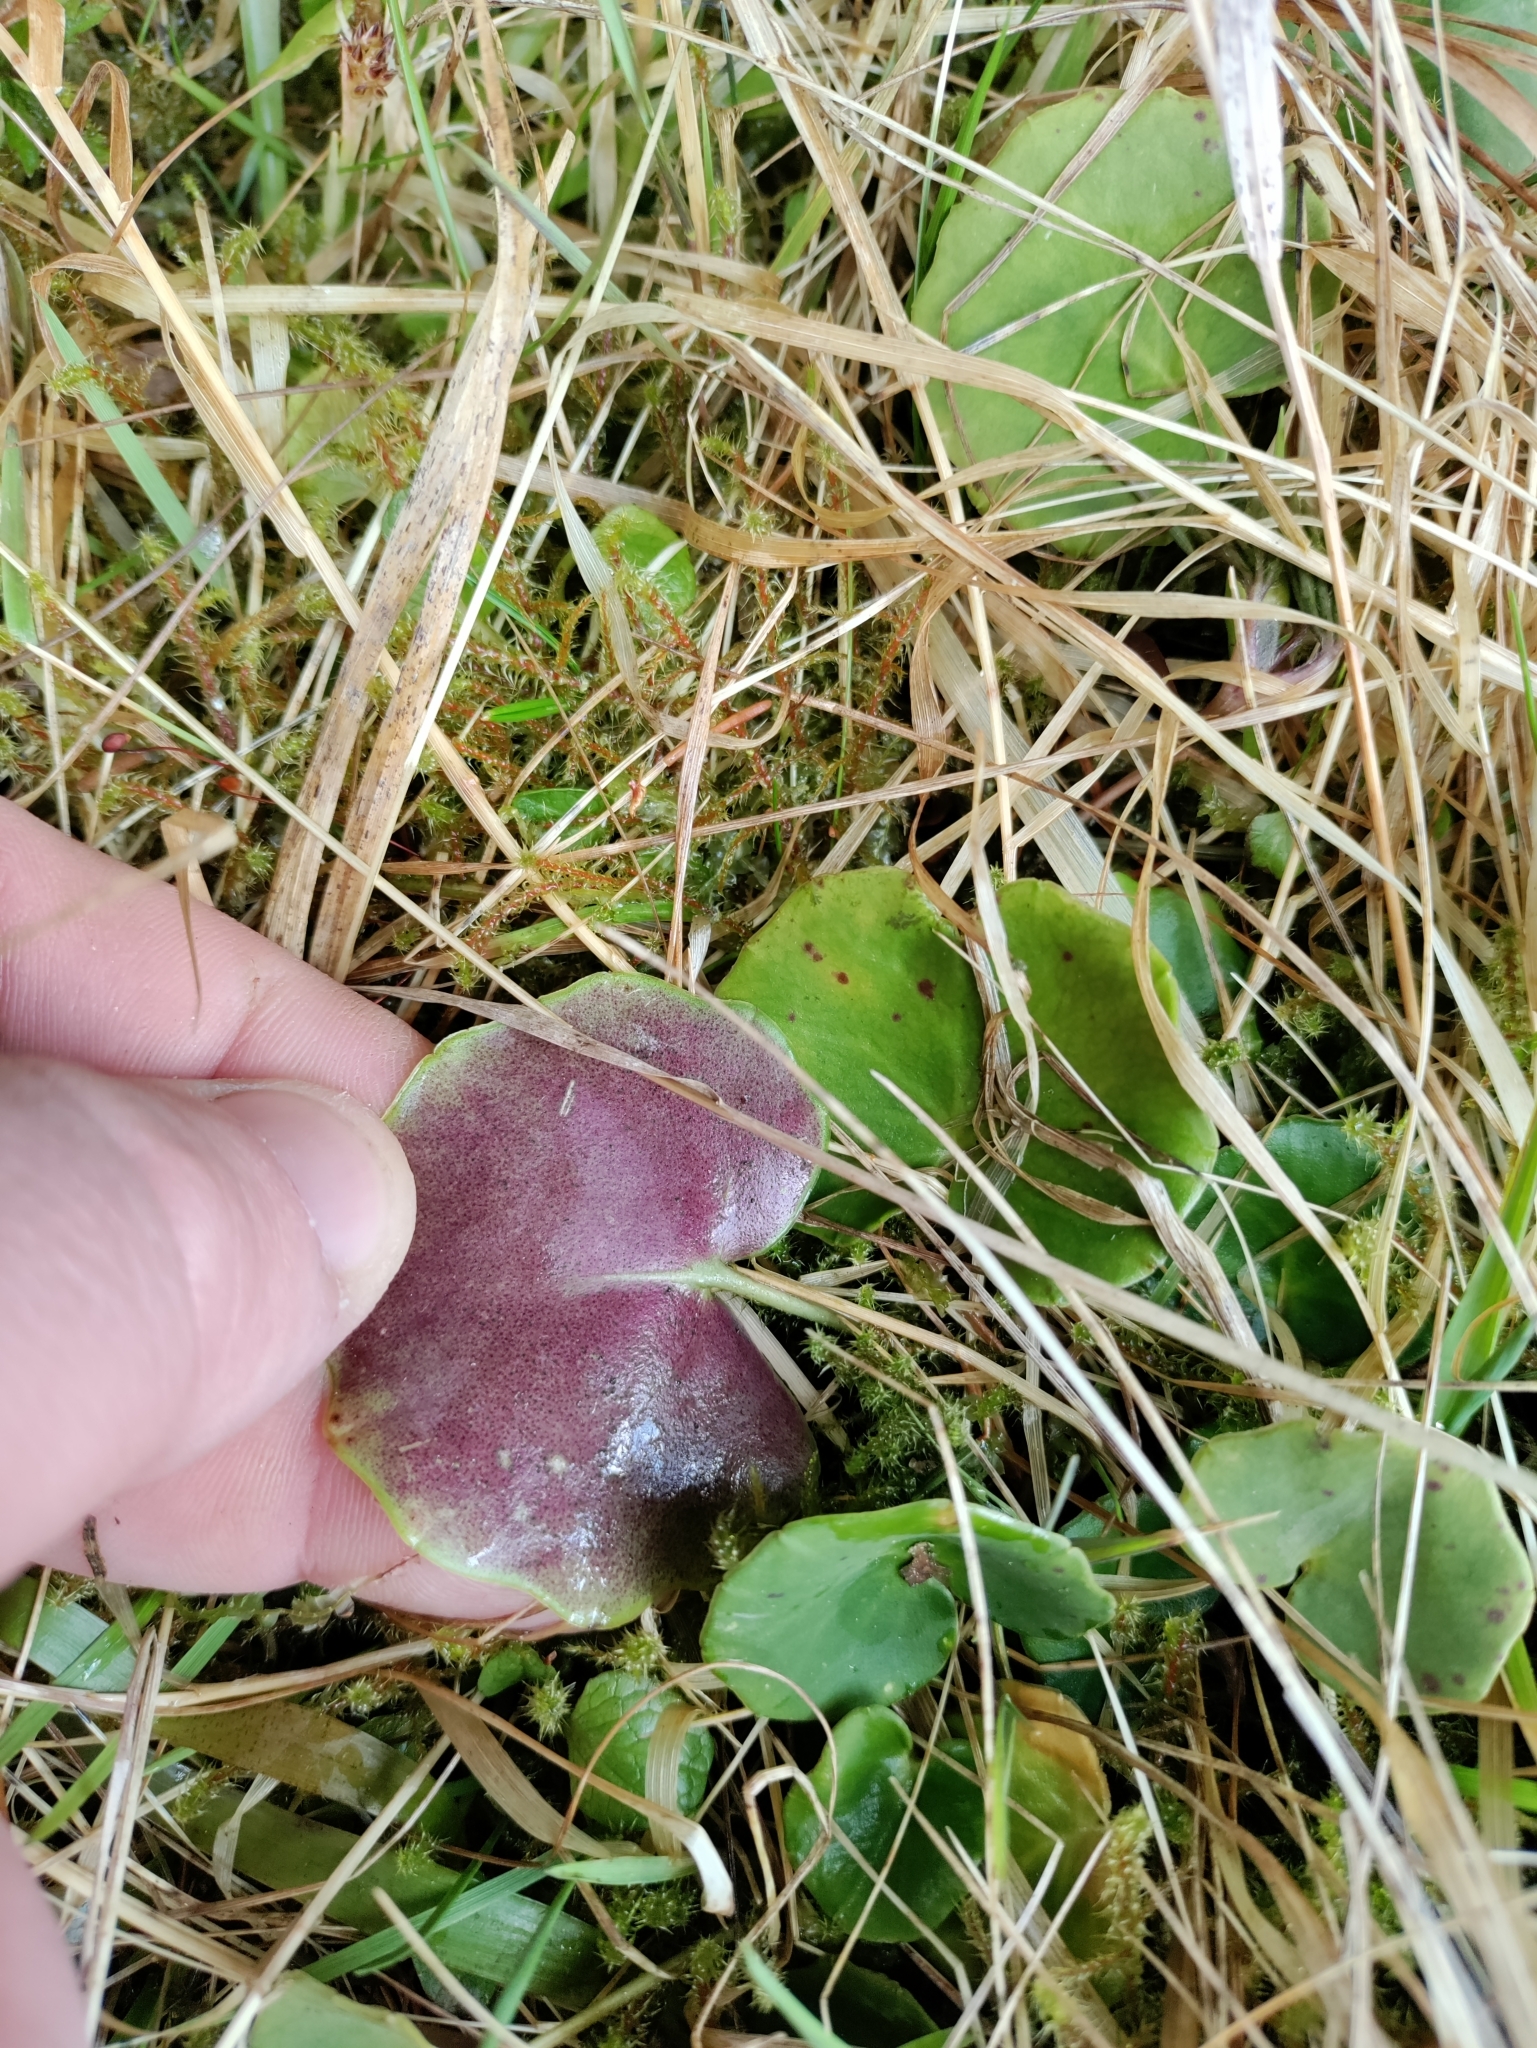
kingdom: Plantae
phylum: Tracheophyta
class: Magnoliopsida
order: Ericales
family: Primulaceae
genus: Soldanella
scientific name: Soldanella montana
